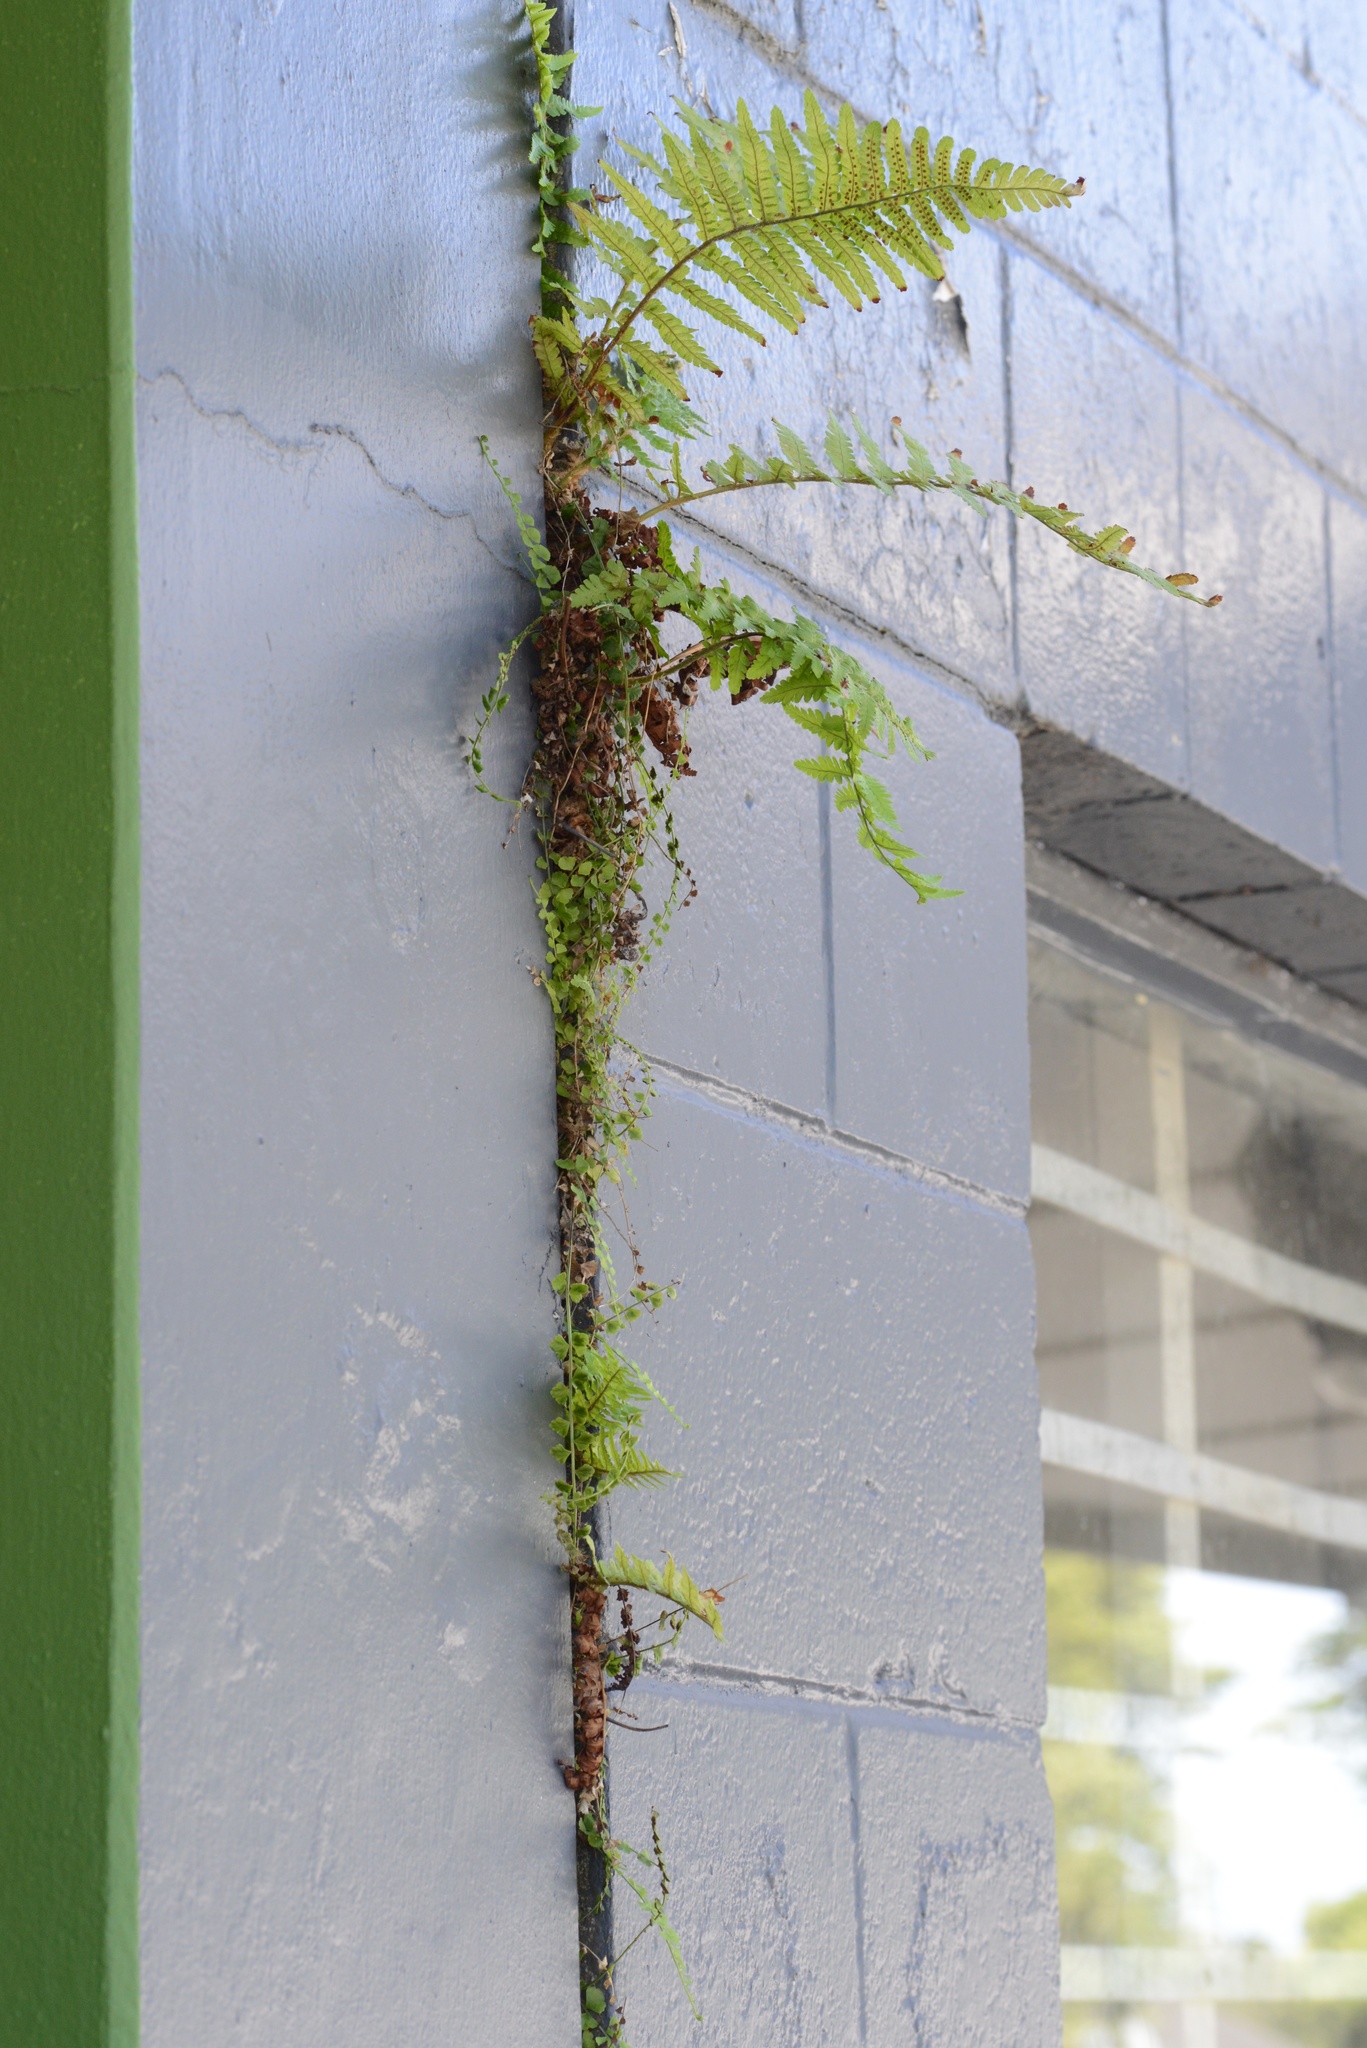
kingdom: Plantae
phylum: Tracheophyta
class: Polypodiopsida
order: Polypodiales
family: Aspleniaceae
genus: Asplenium
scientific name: Asplenium flabellifolium
